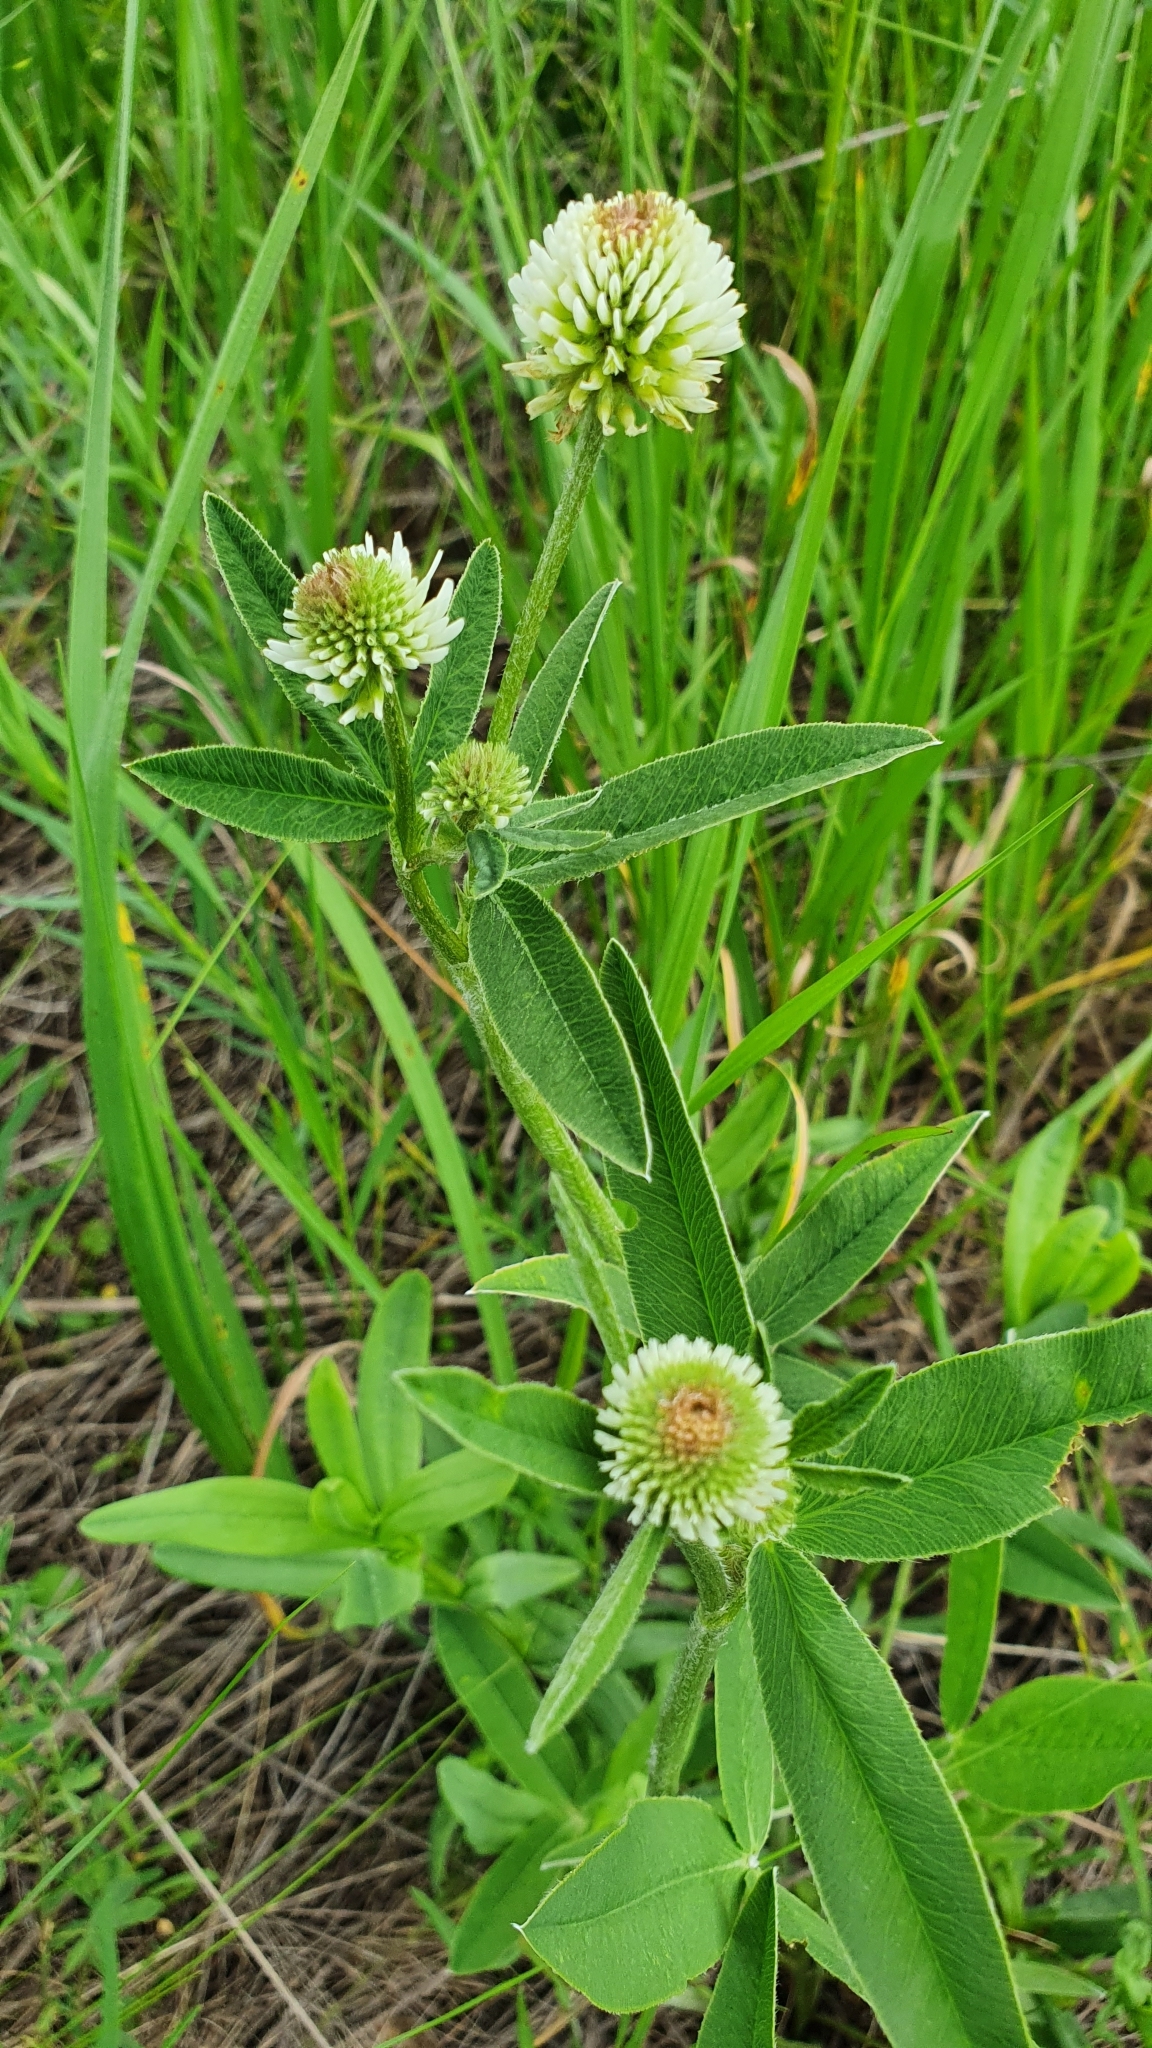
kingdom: Plantae
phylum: Tracheophyta
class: Magnoliopsida
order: Fabales
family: Fabaceae
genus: Trifolium
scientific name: Trifolium montanum
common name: Mountain clover
